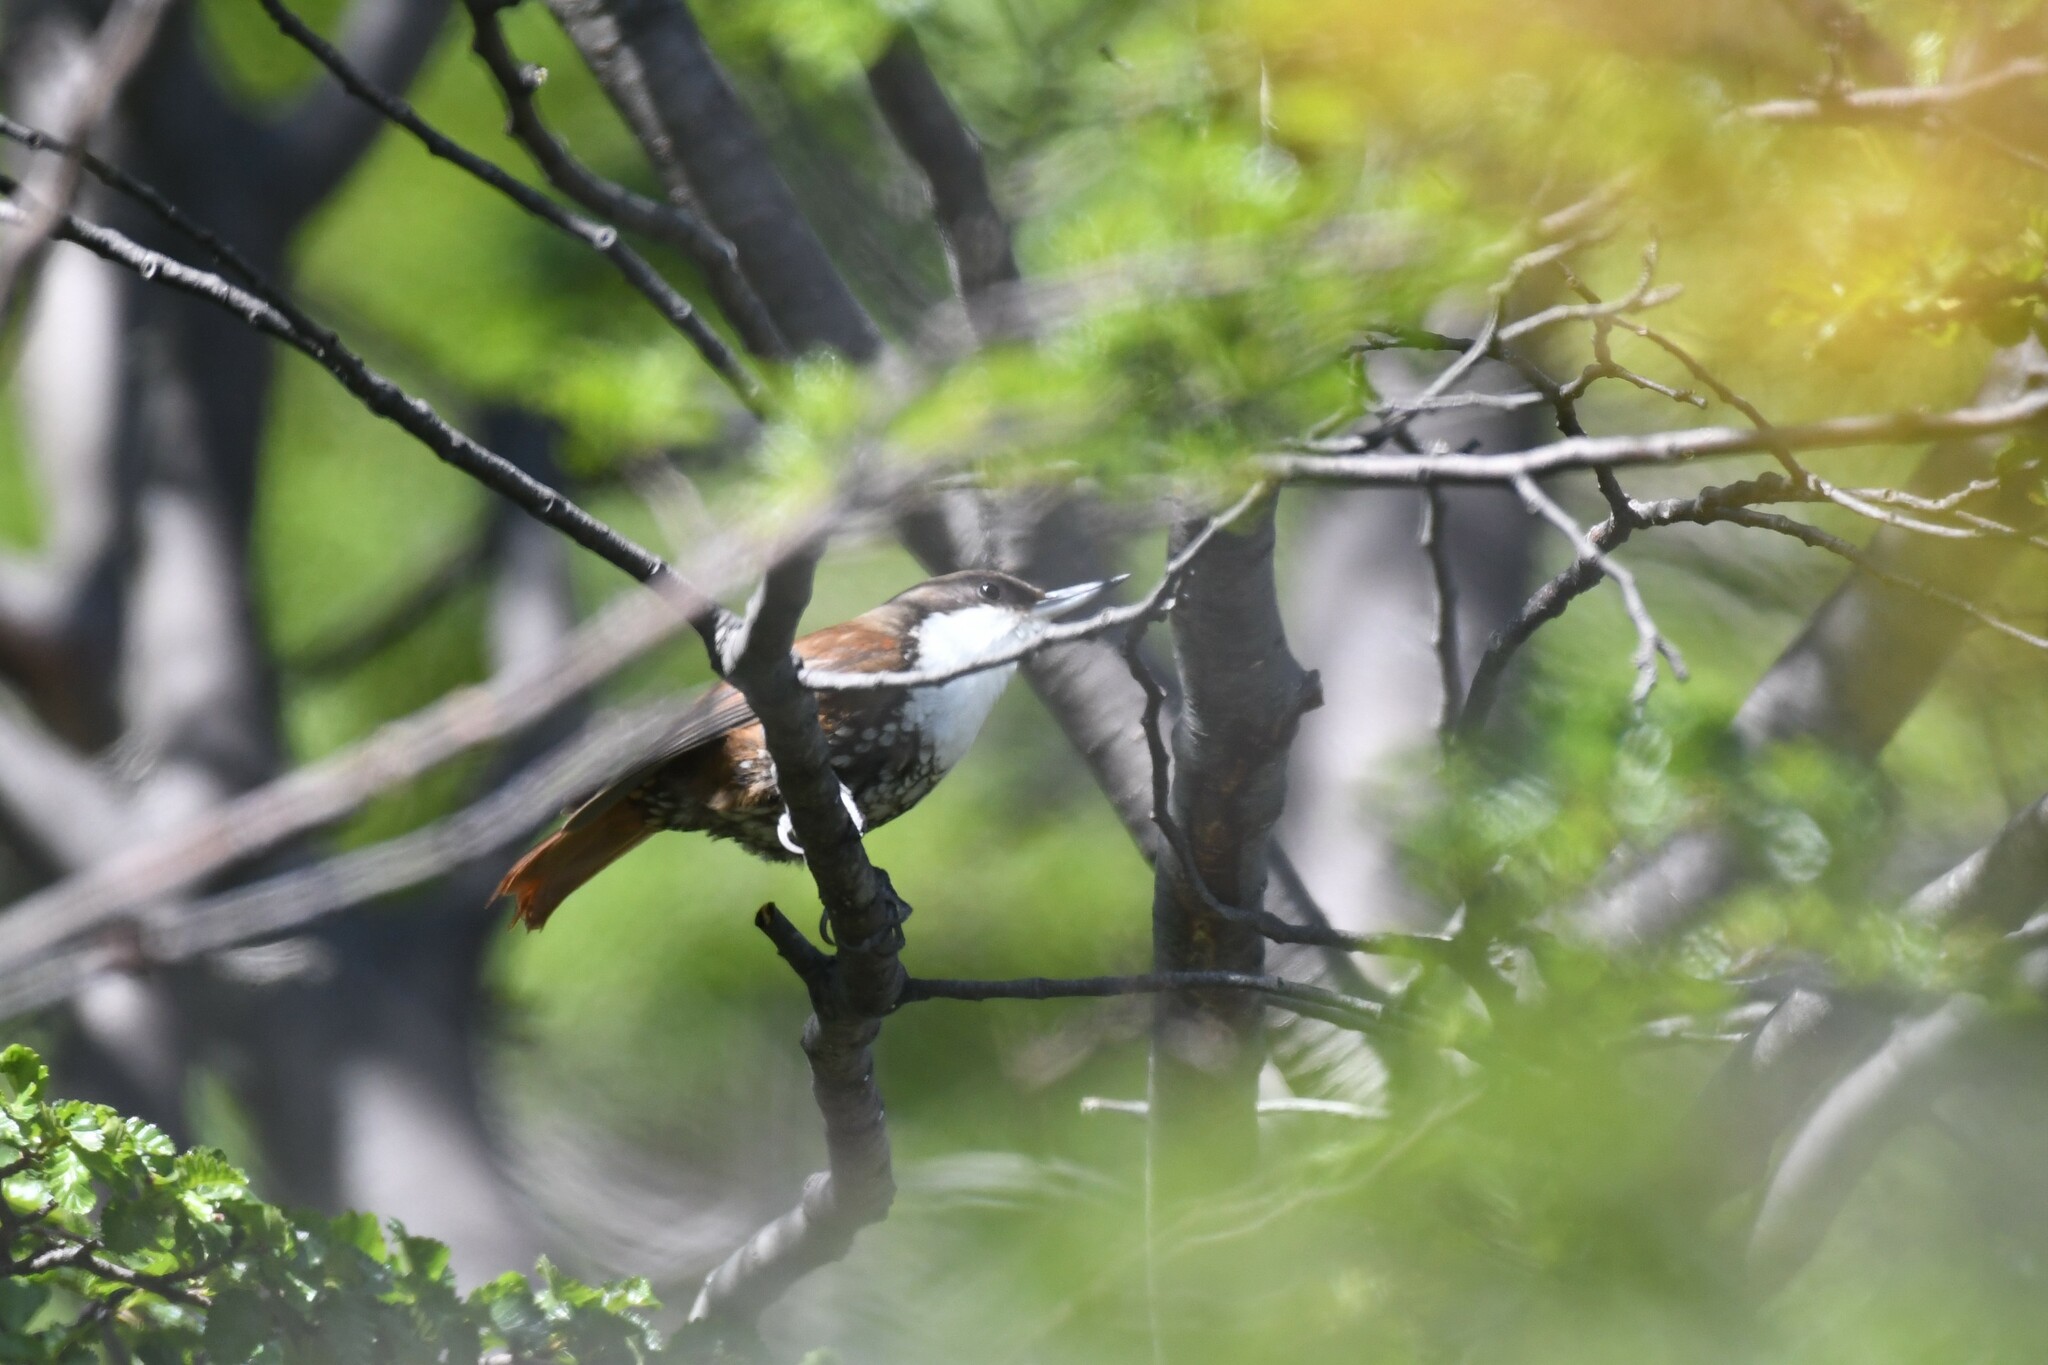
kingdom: Animalia
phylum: Chordata
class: Aves
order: Passeriformes
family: Furnariidae
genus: Pygarrhichas
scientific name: Pygarrhichas albogularis
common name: White-throated treerunner
